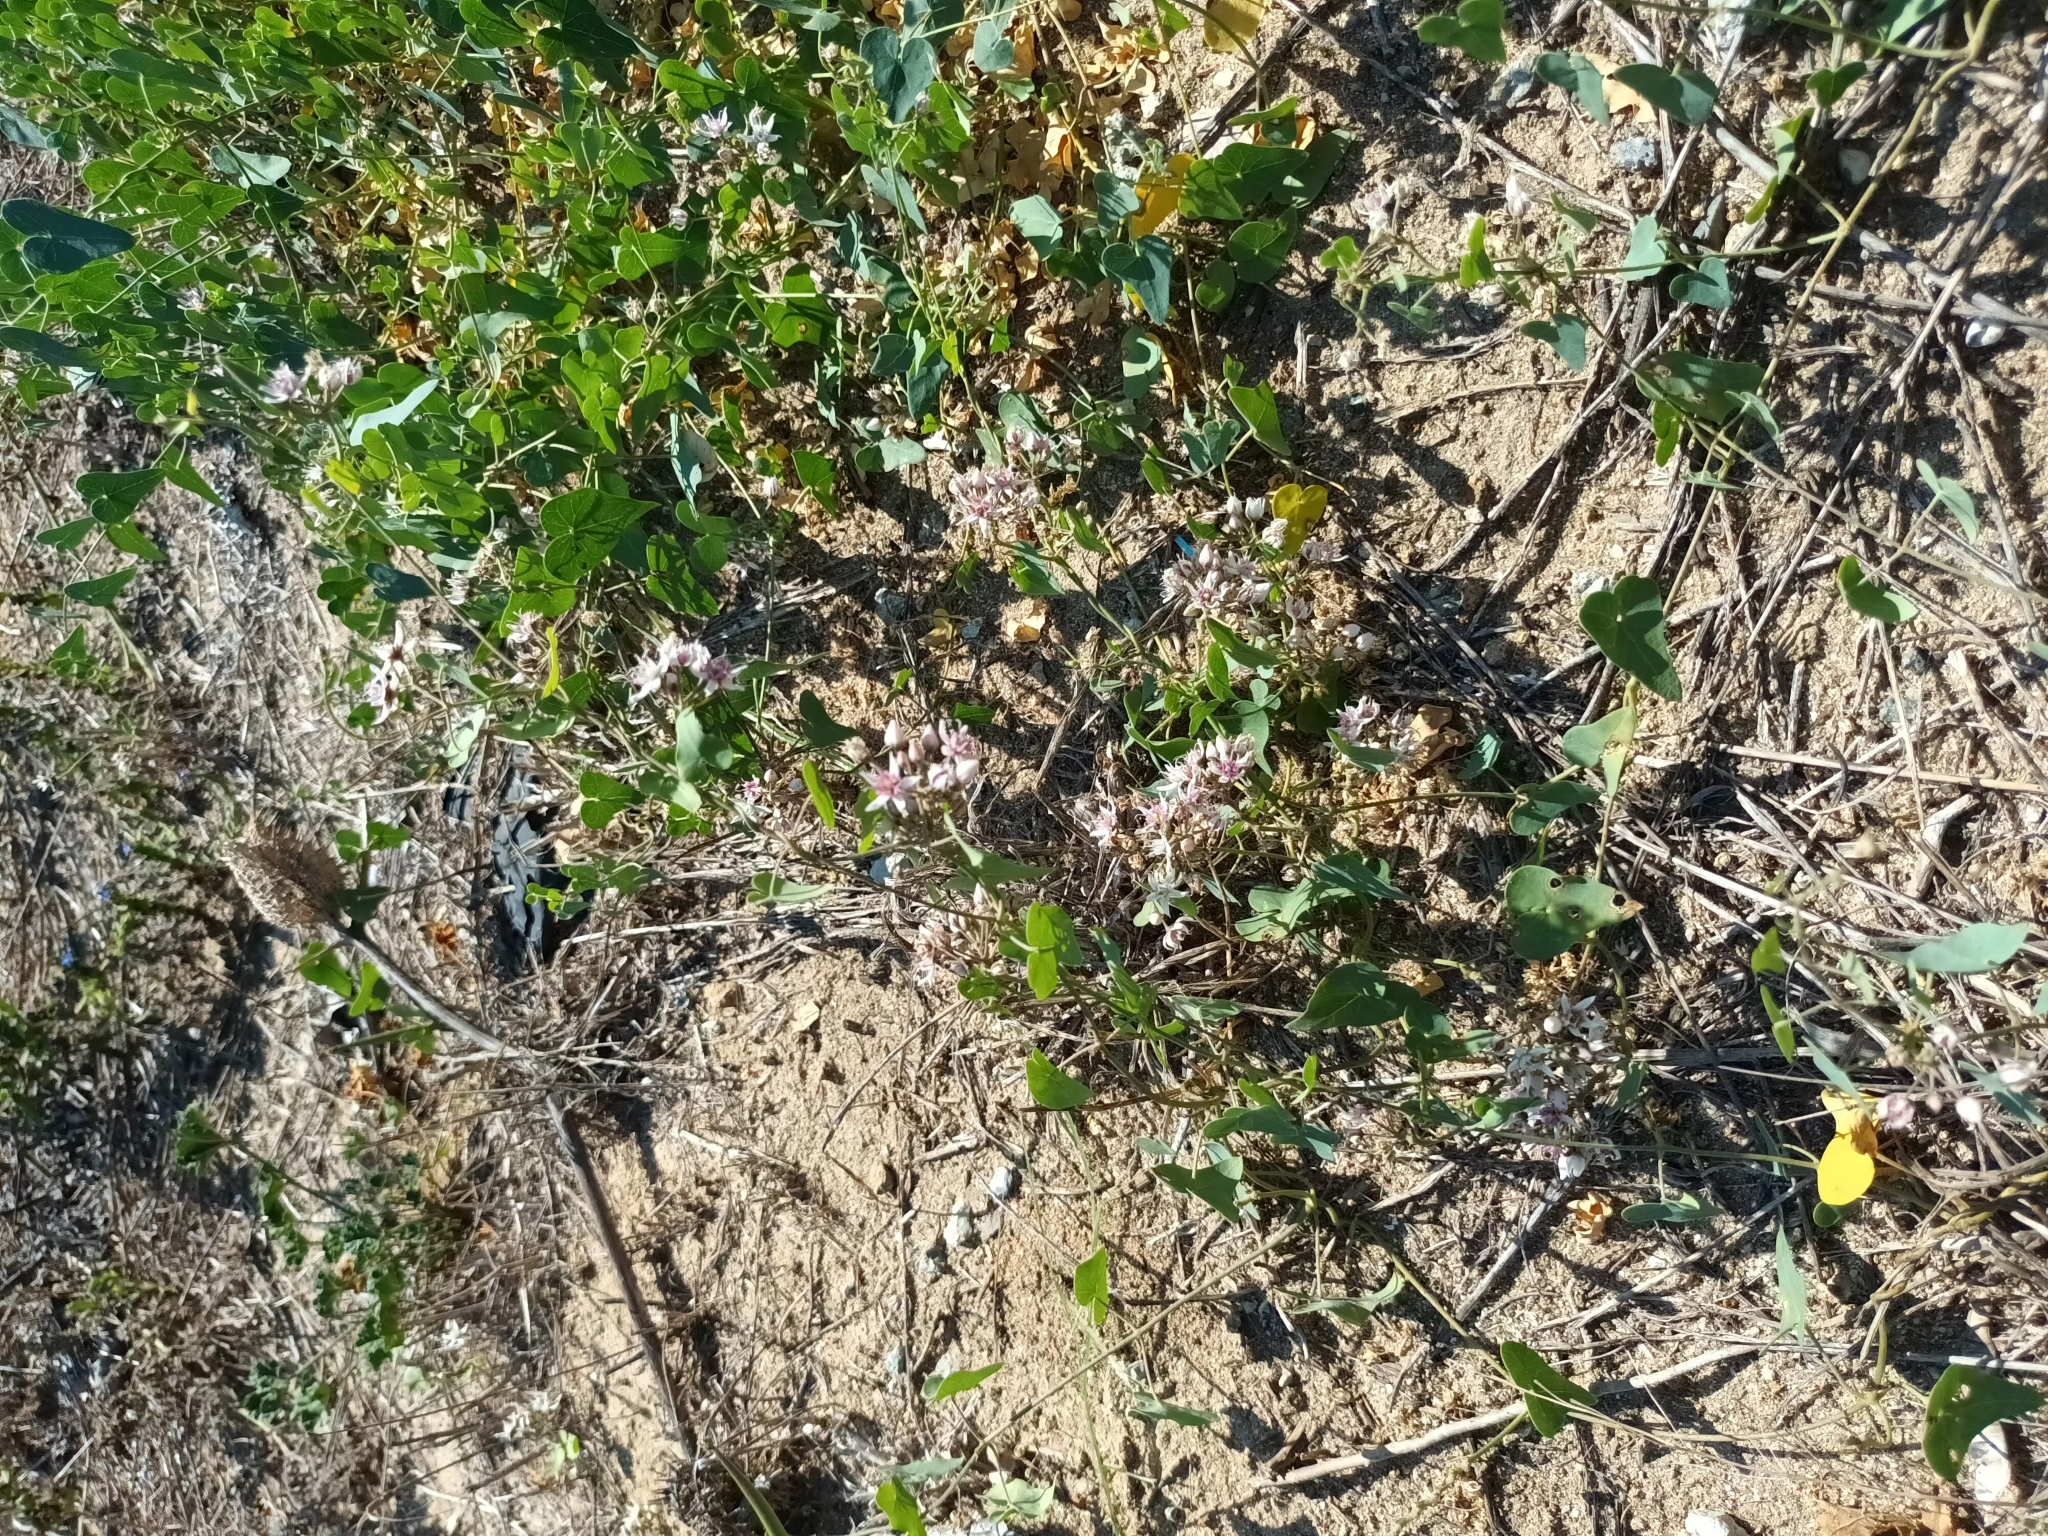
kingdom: Plantae
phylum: Tracheophyta
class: Magnoliopsida
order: Gentianales
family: Apocynaceae
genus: Cynanchum
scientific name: Cynanchum acutum
